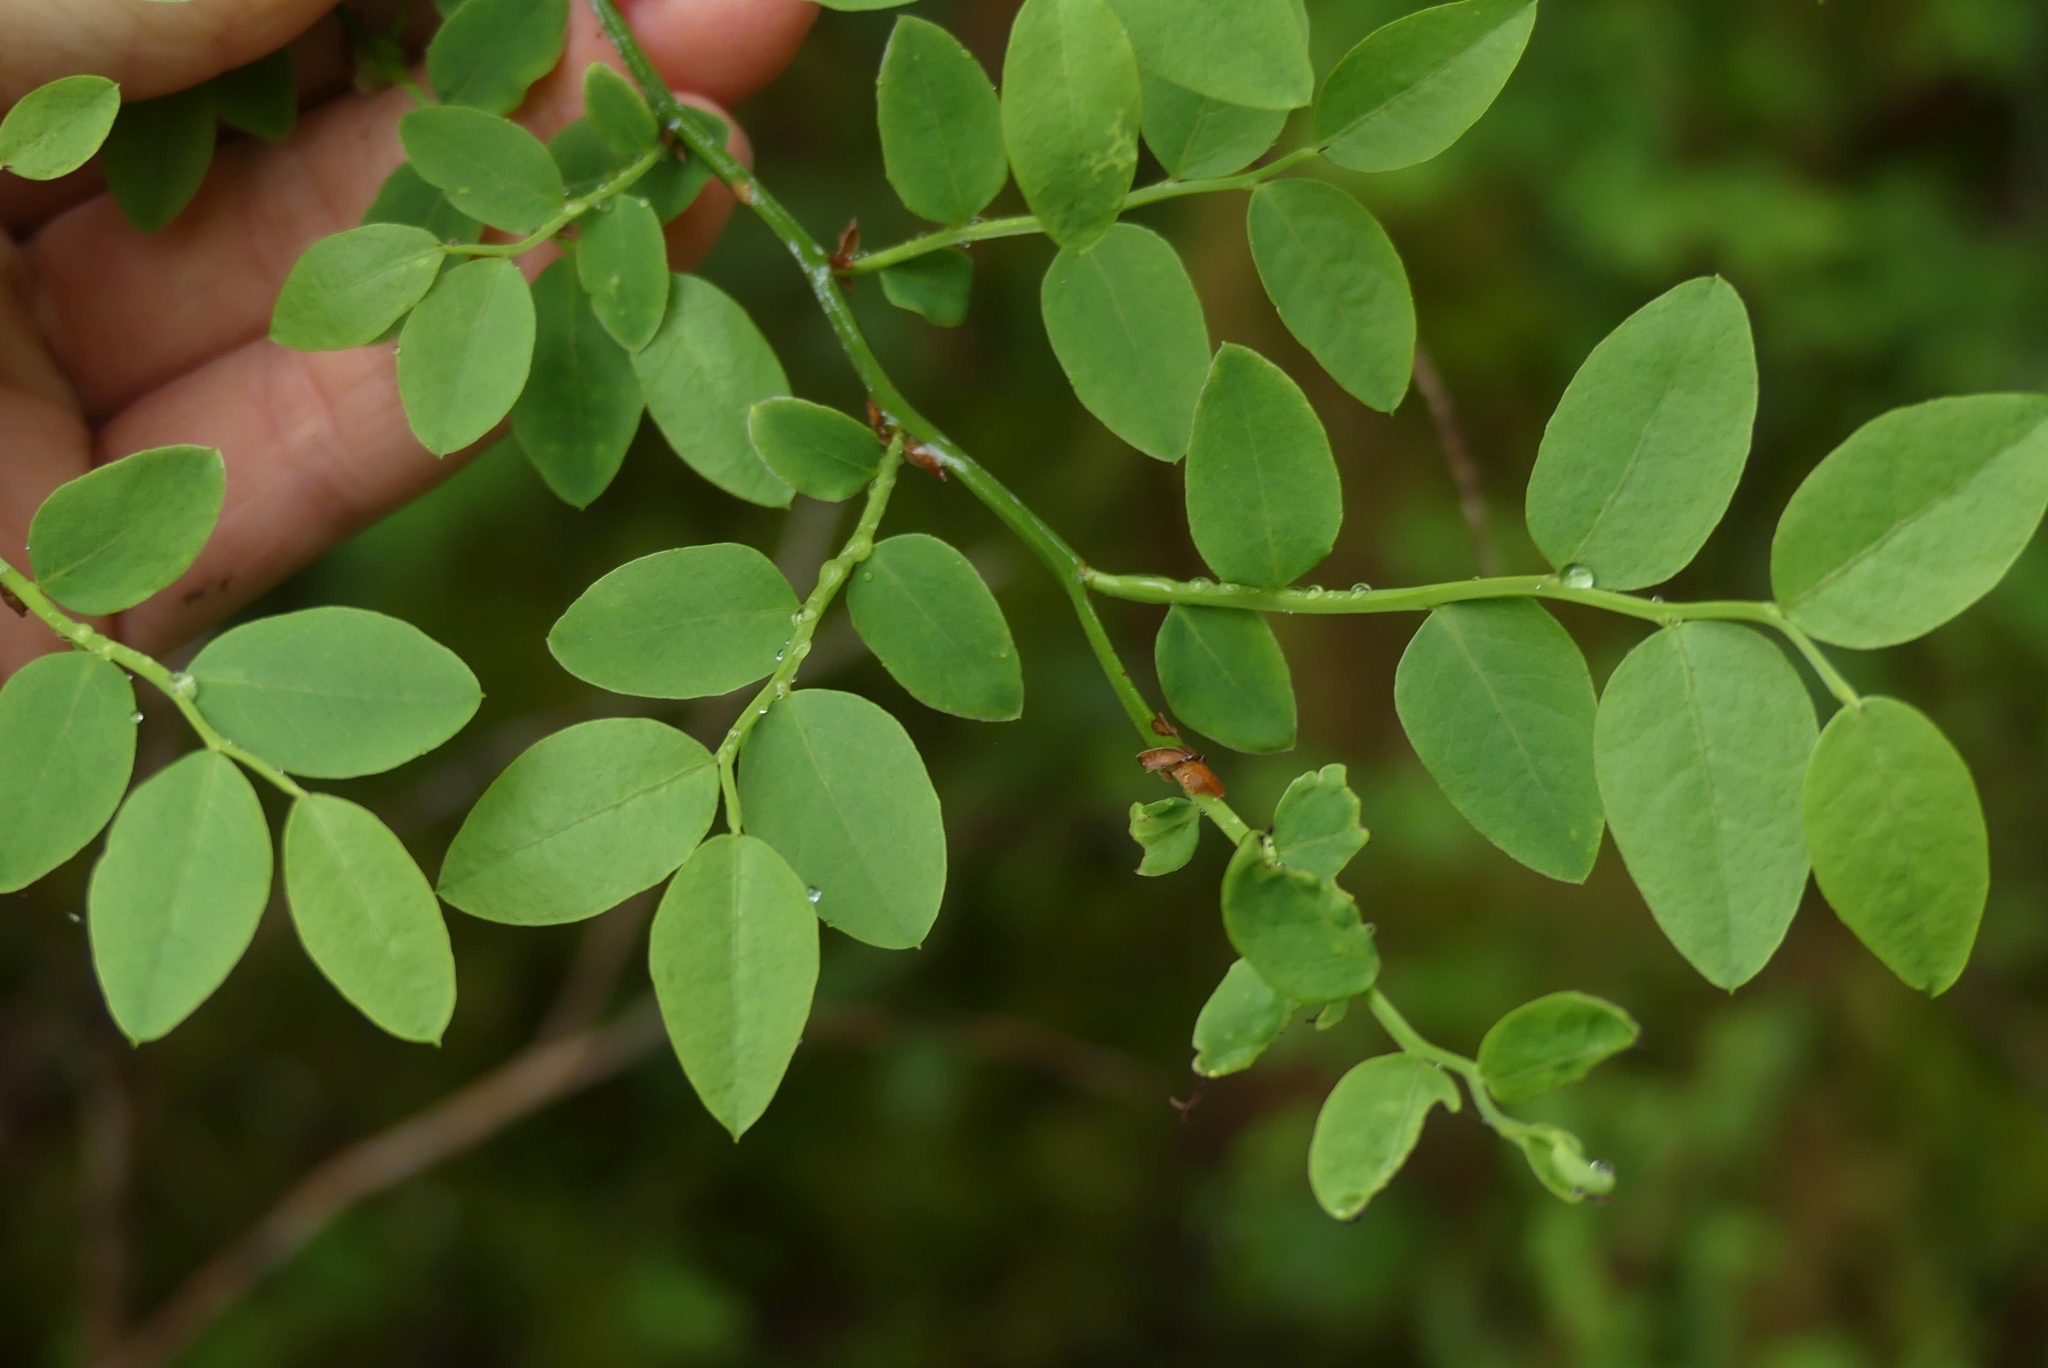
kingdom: Plantae
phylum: Tracheophyta
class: Magnoliopsida
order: Ericales
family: Ericaceae
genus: Vaccinium
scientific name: Vaccinium parvifolium
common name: Red-huckleberry
